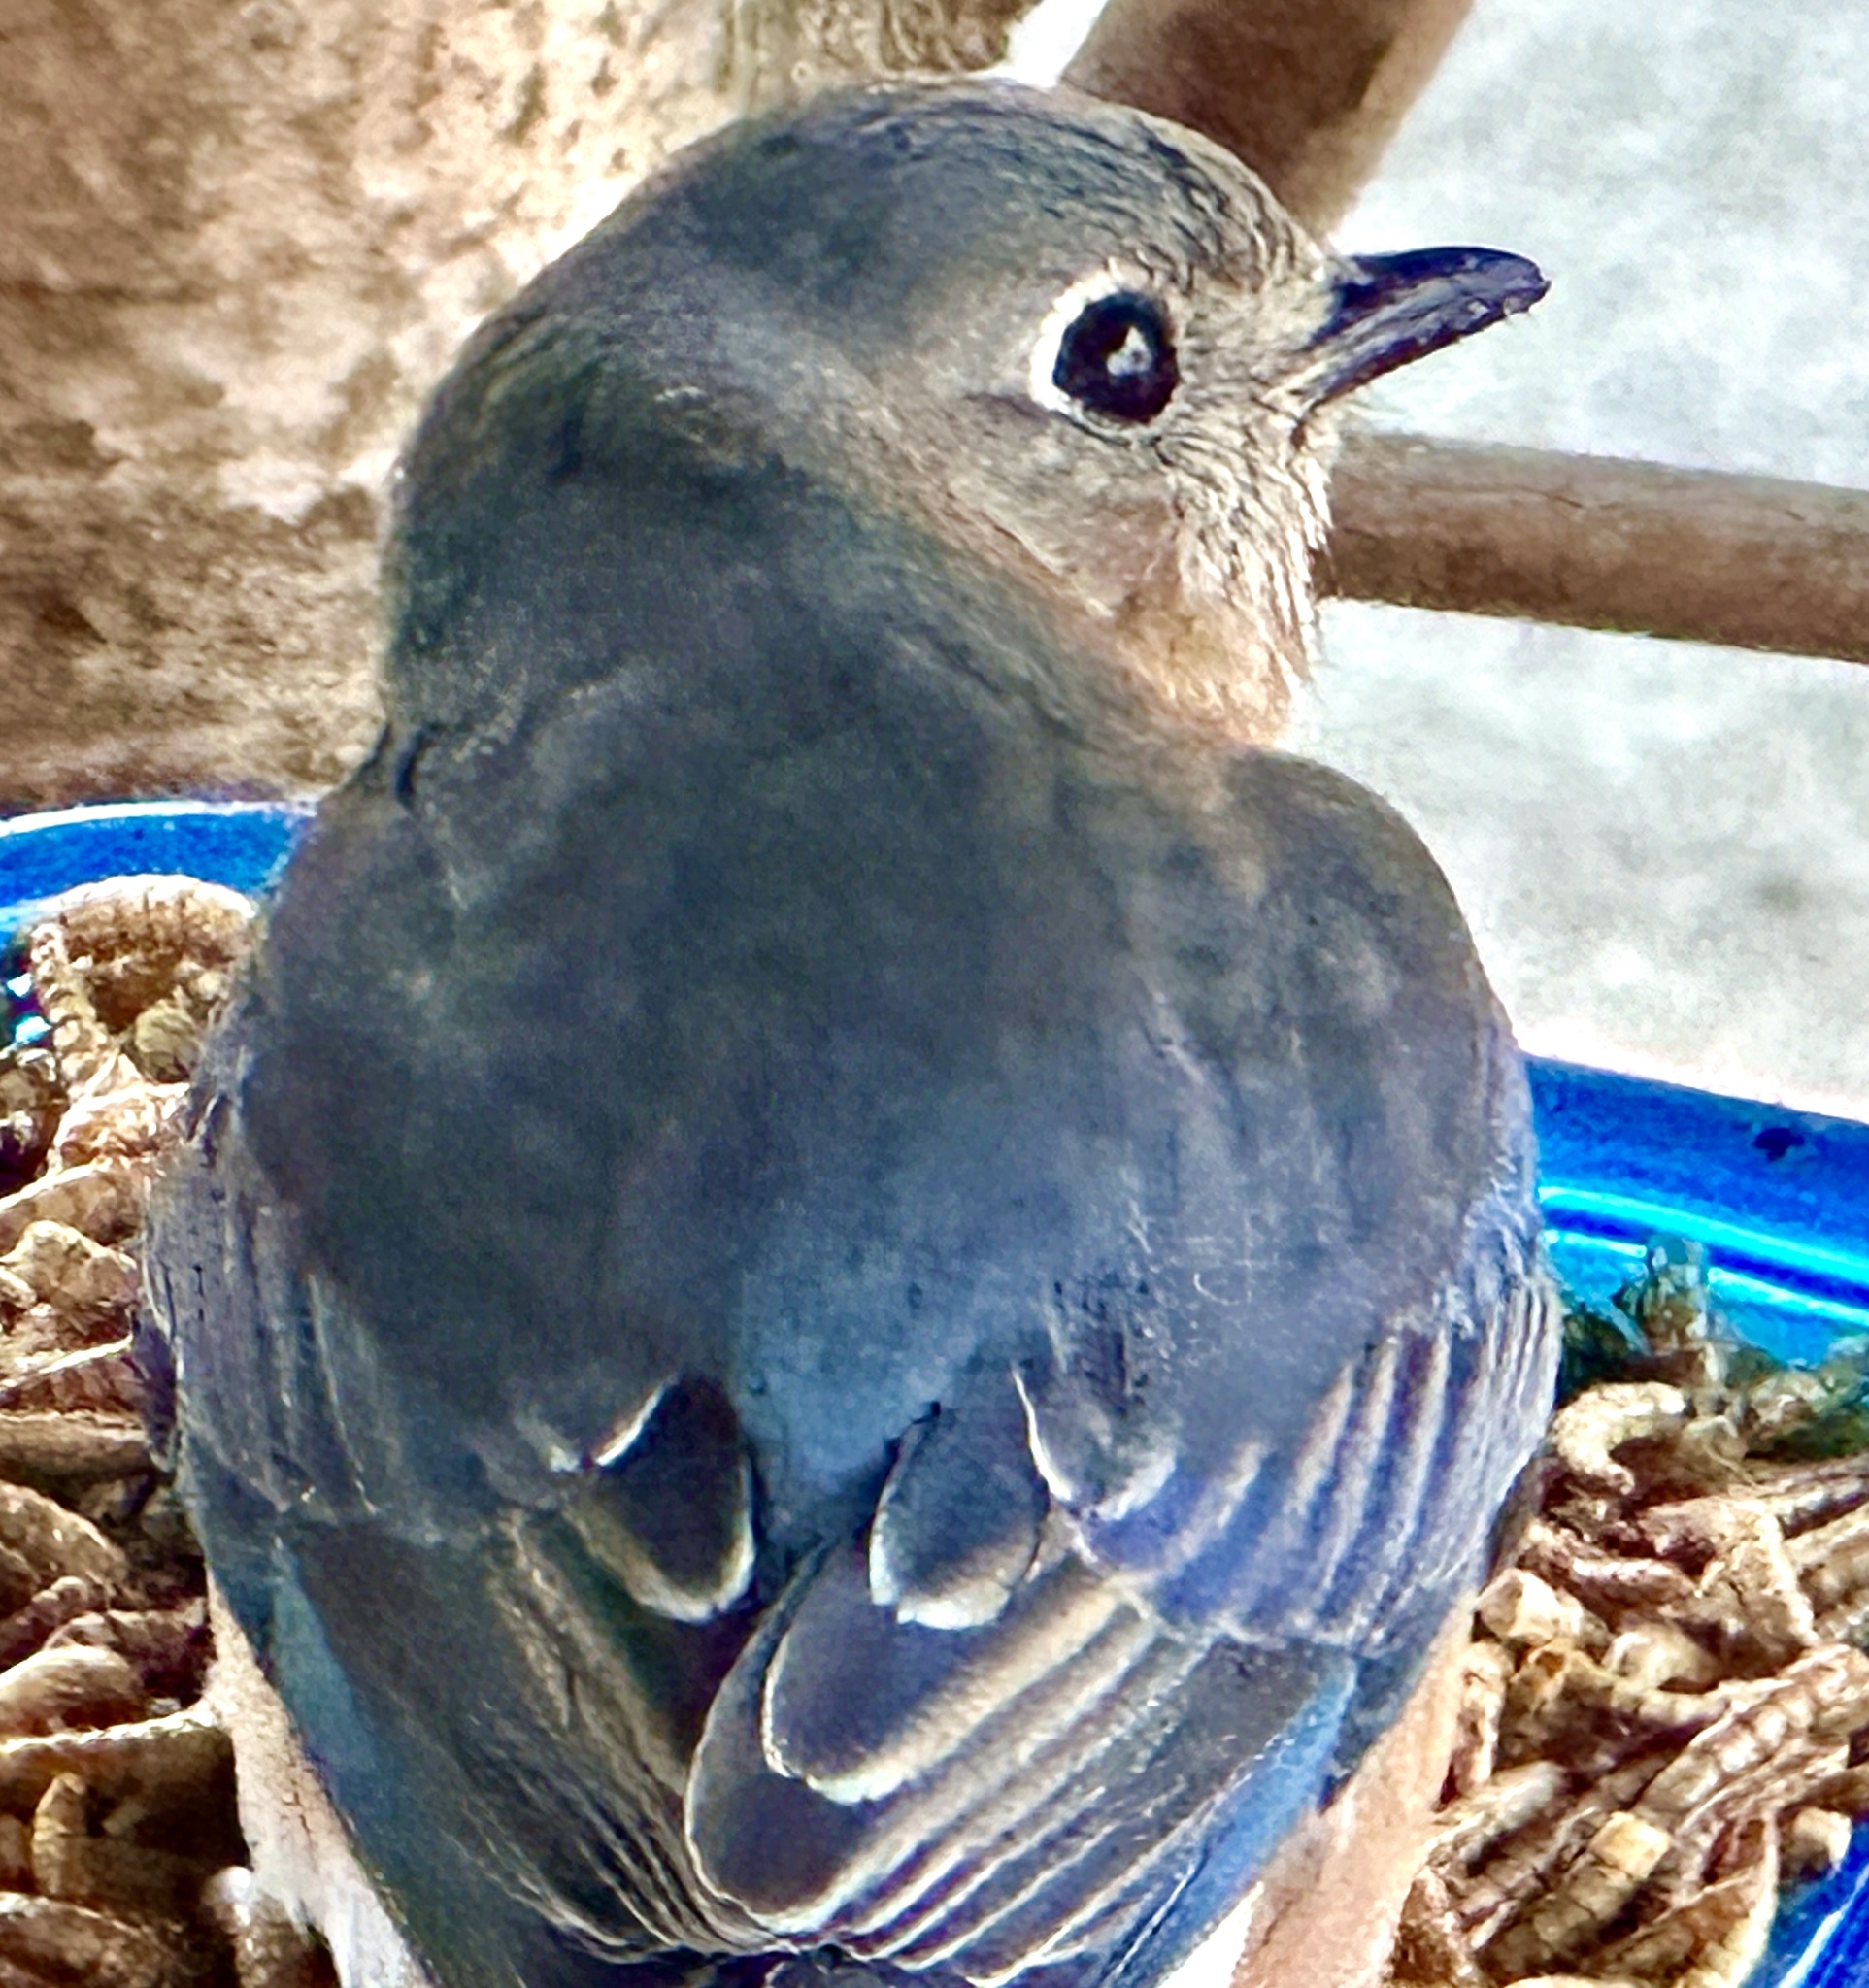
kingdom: Animalia
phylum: Chordata
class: Aves
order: Passeriformes
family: Turdidae
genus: Sialia
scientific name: Sialia sialis
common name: Eastern bluebird
